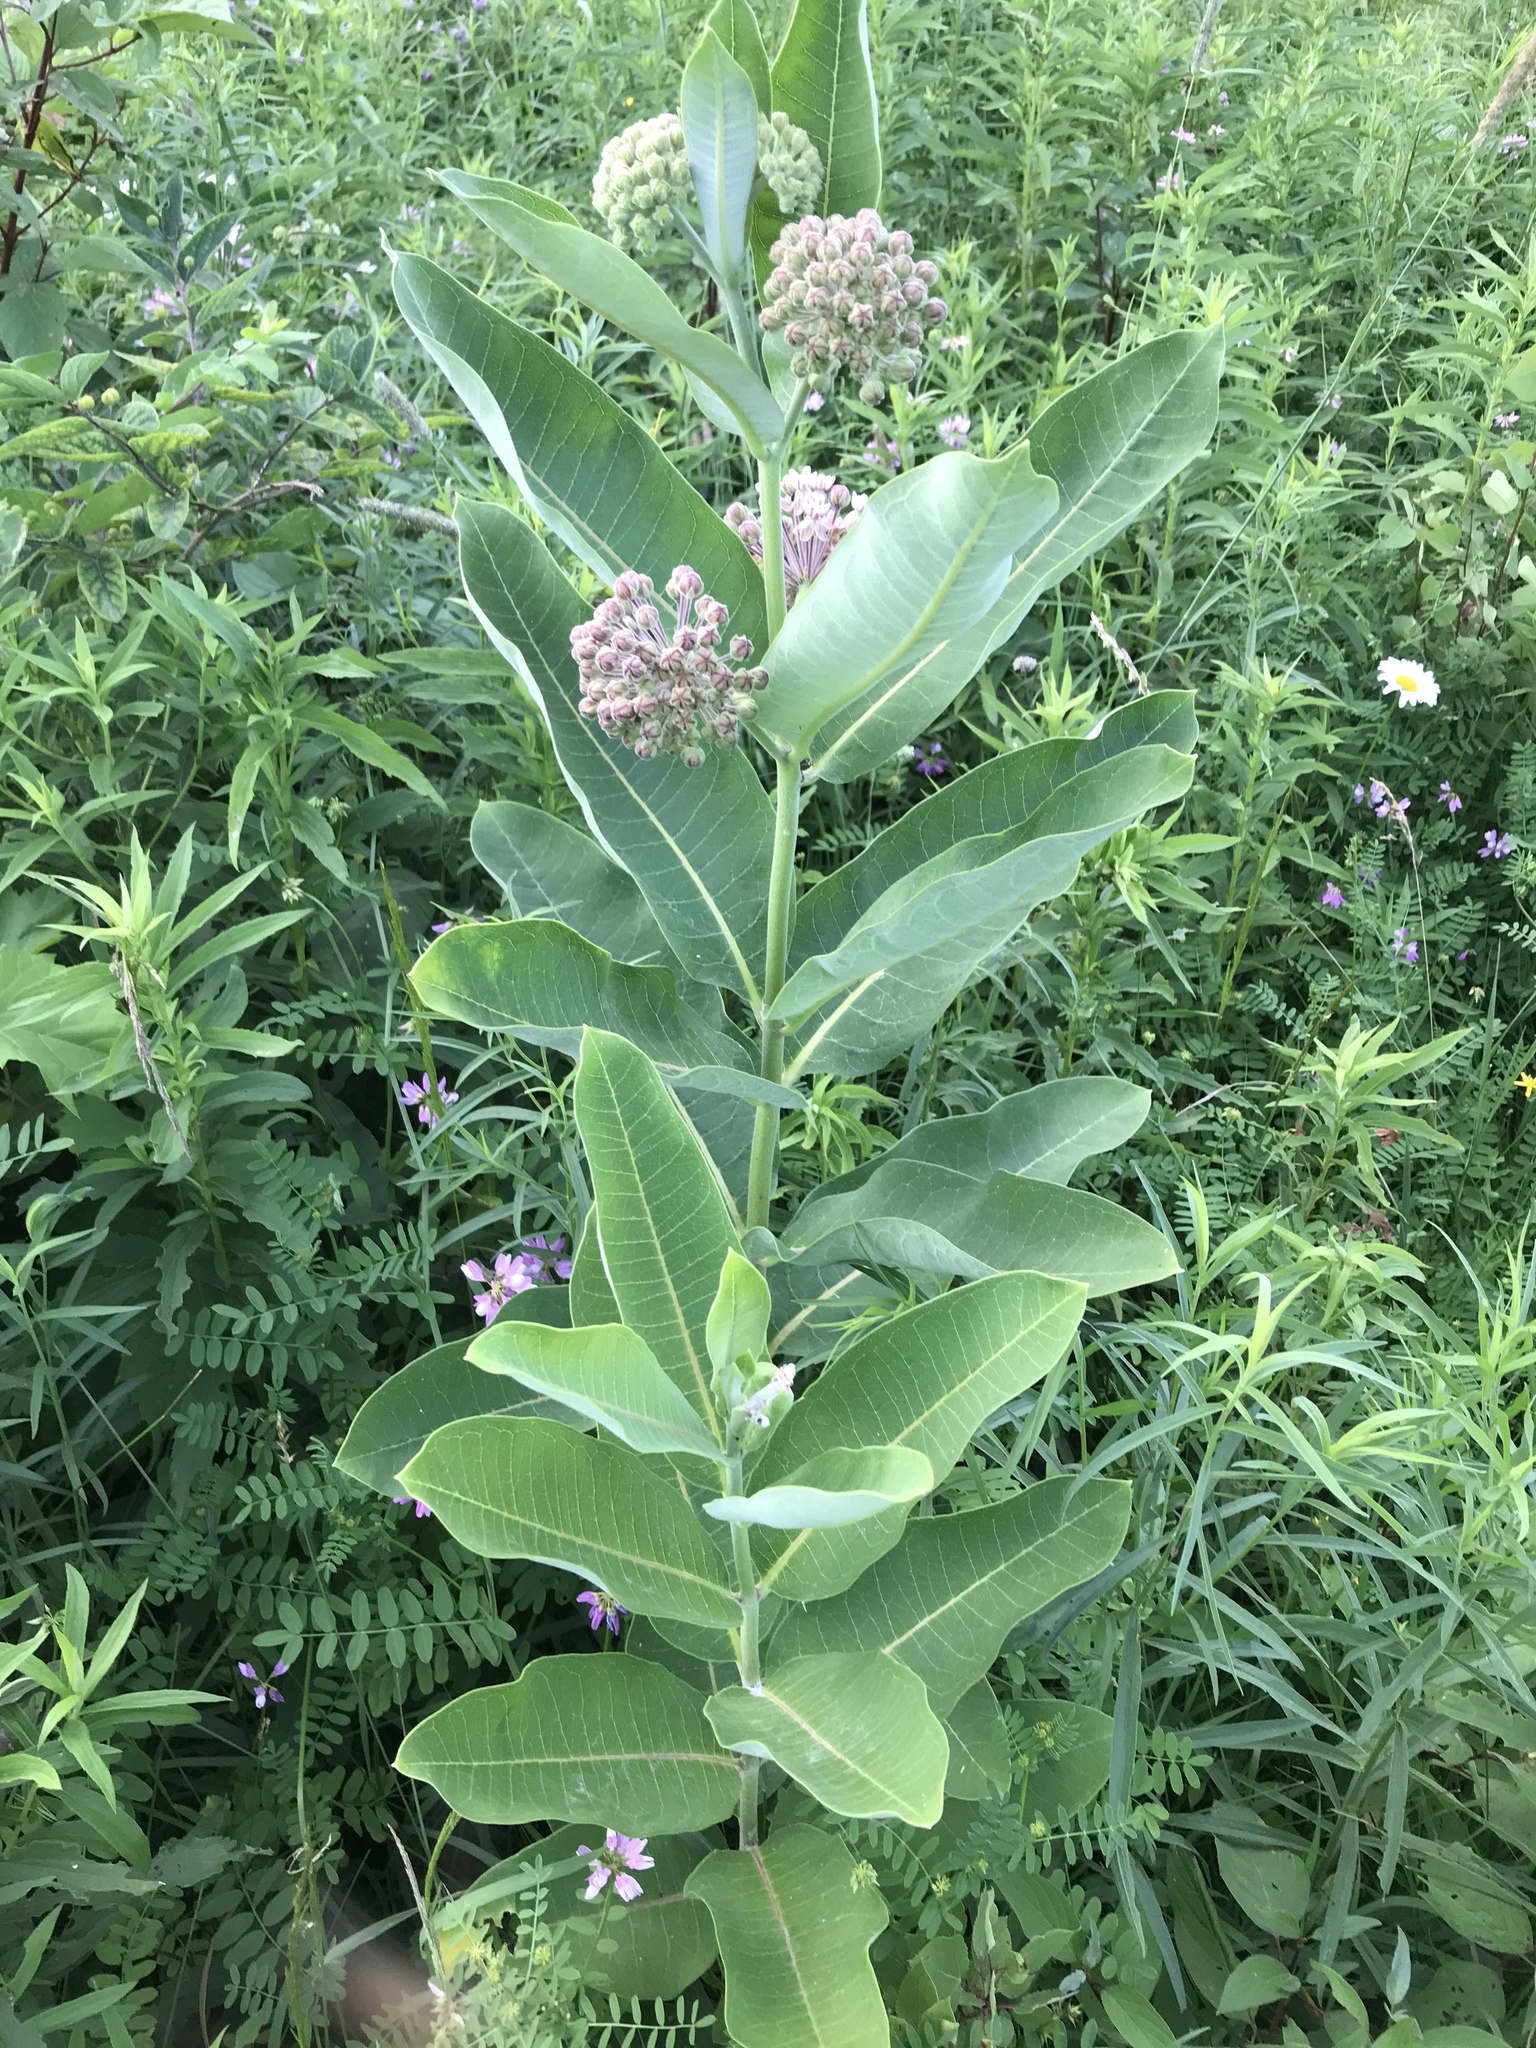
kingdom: Plantae
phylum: Tracheophyta
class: Magnoliopsida
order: Gentianales
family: Apocynaceae
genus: Asclepias
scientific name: Asclepias syriaca
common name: Common milkweed
